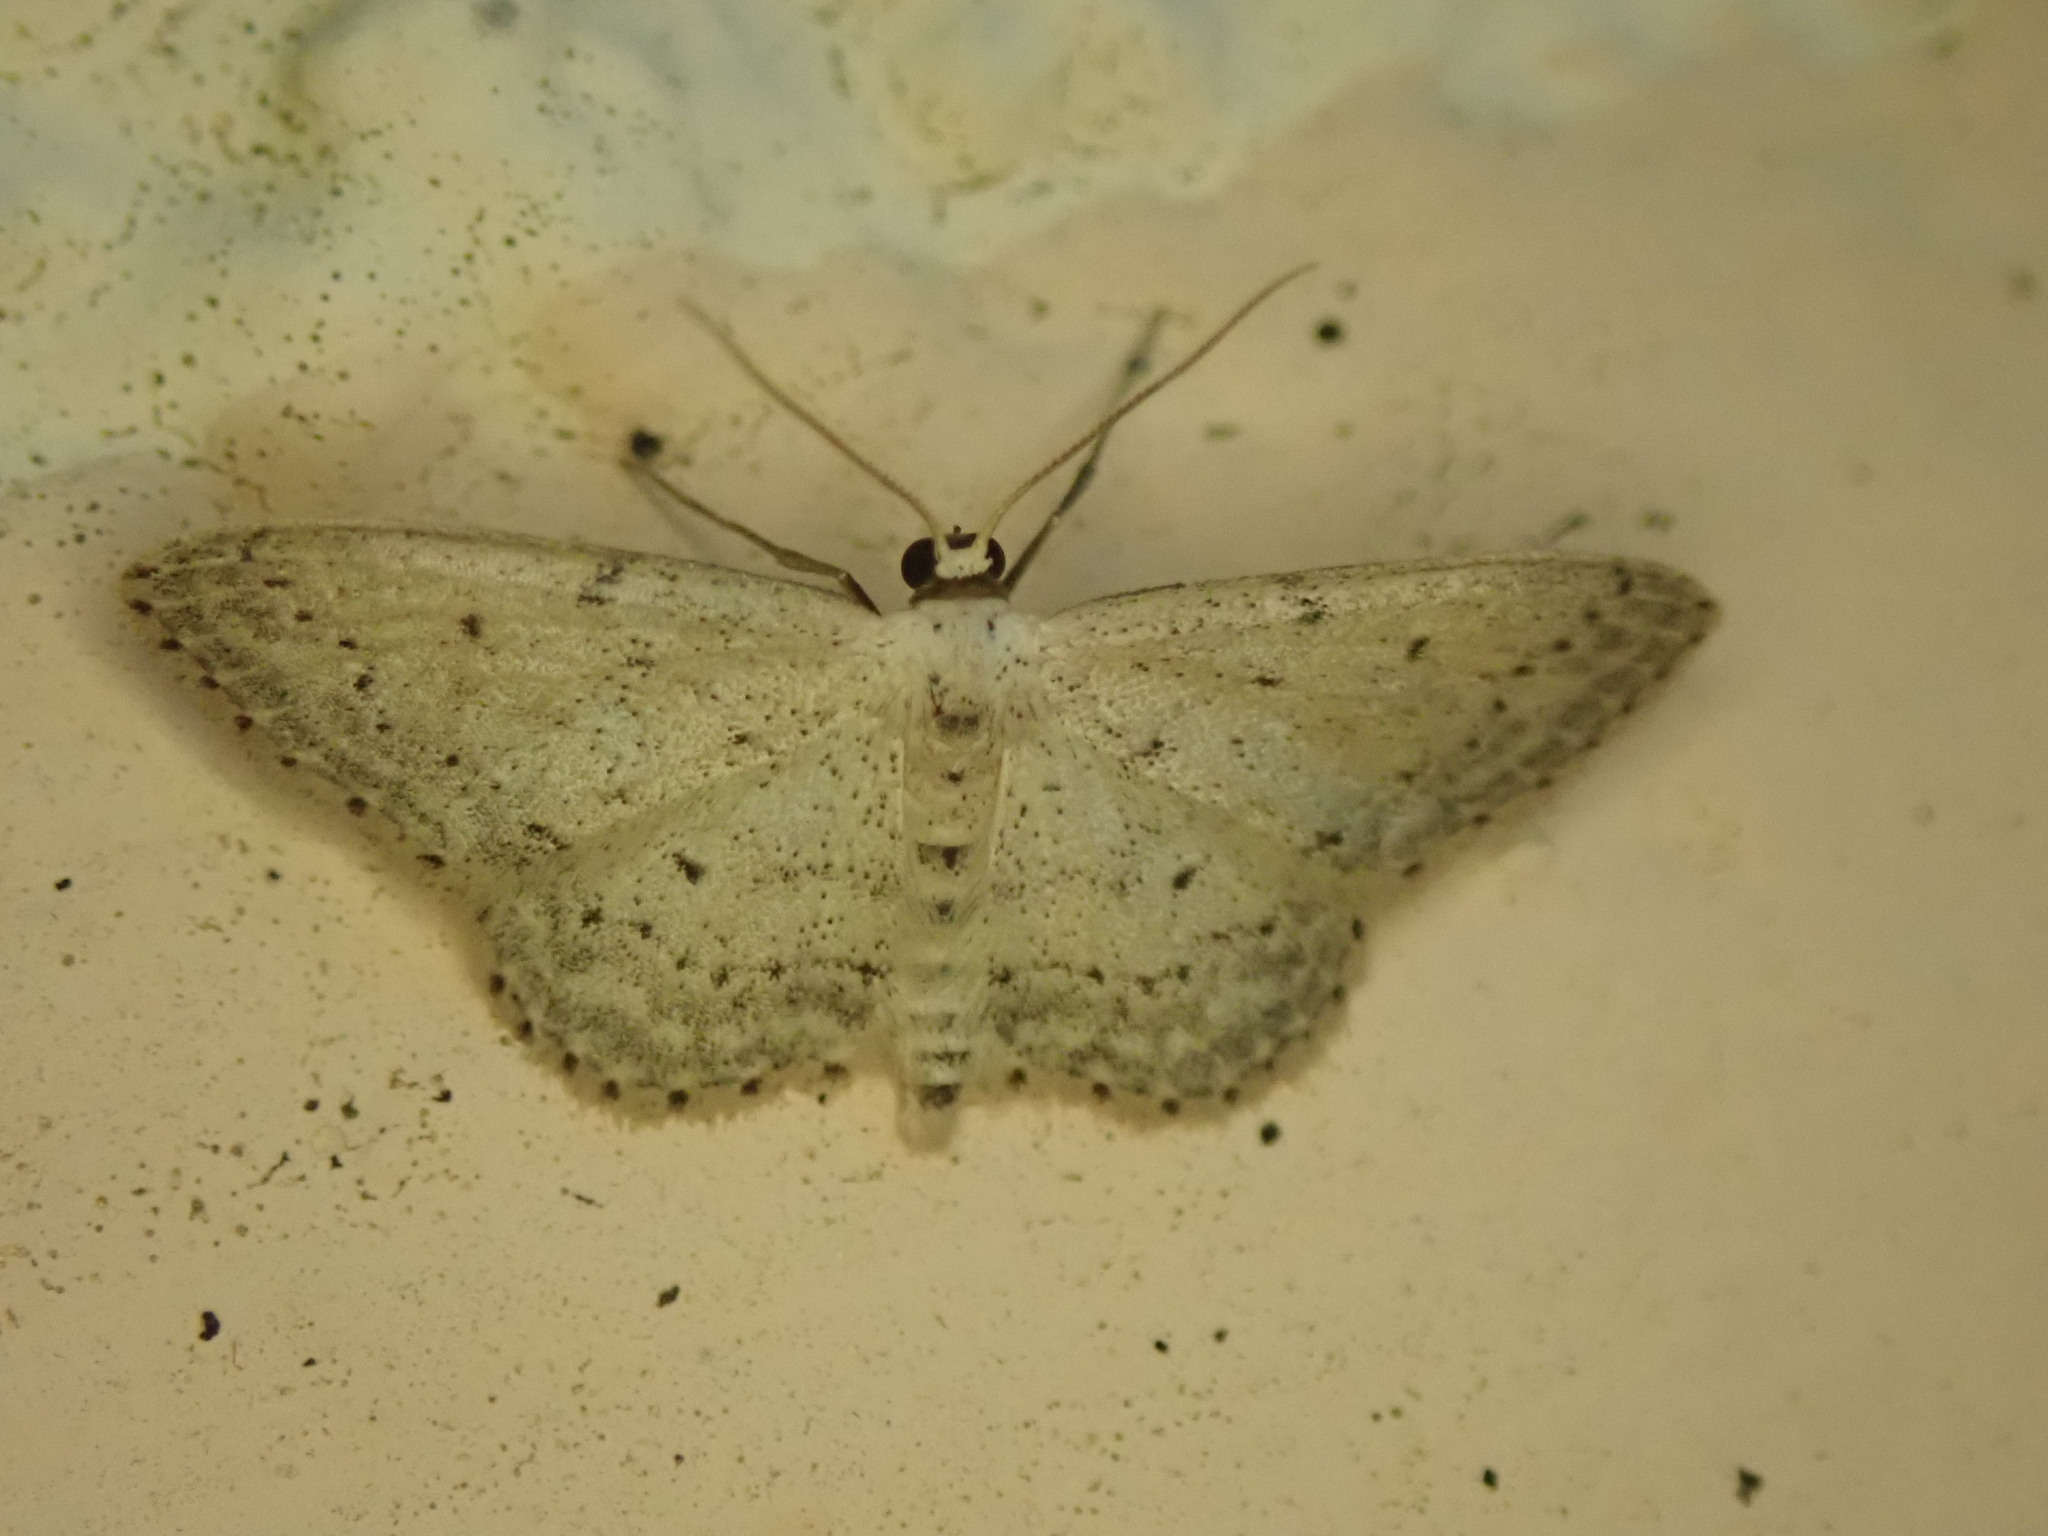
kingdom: Animalia
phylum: Arthropoda
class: Insecta
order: Lepidoptera
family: Geometridae
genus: Idaea
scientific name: Idaea seriata
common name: Small dusty wave
